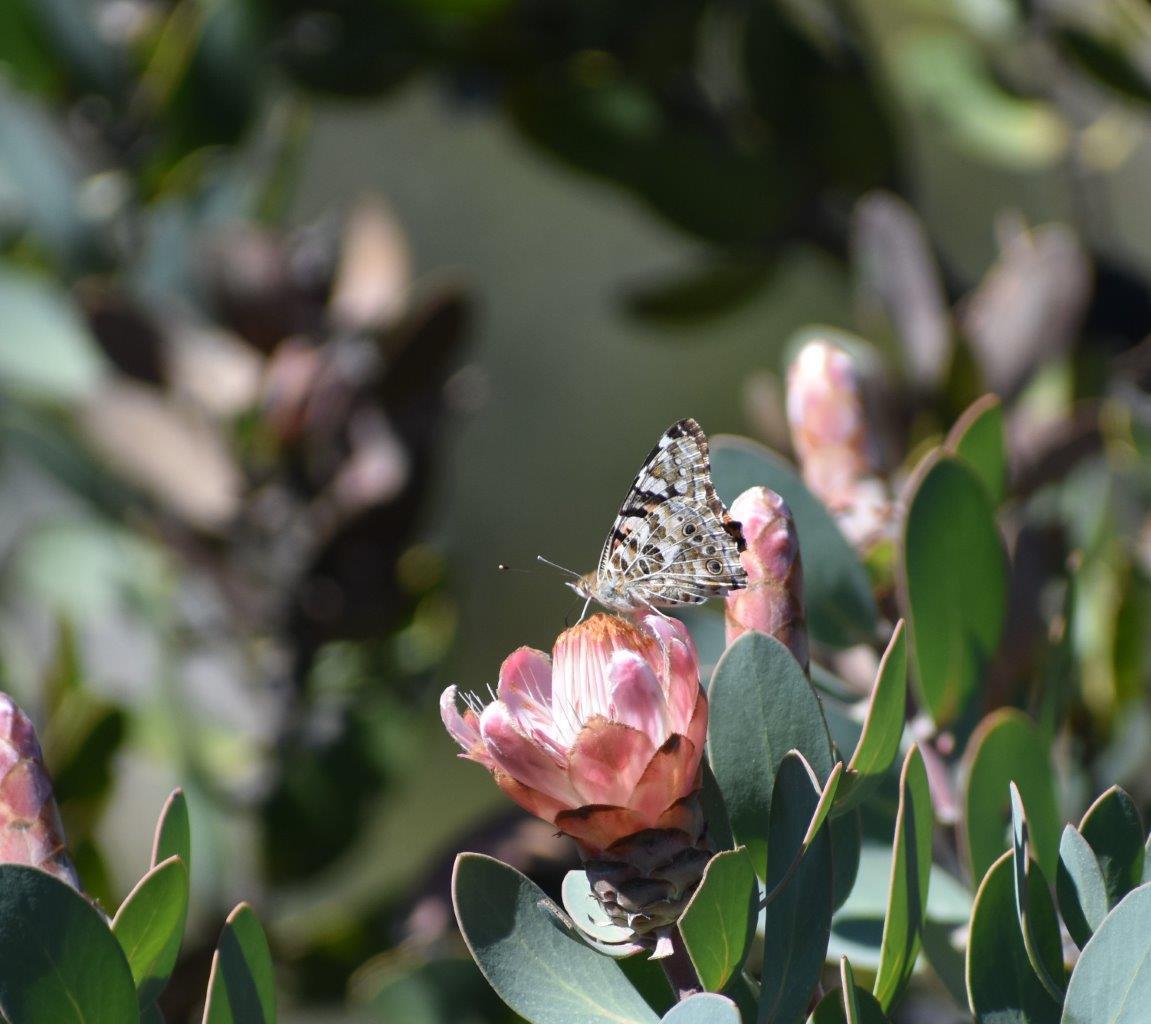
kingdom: Animalia
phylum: Arthropoda
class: Insecta
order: Lepidoptera
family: Nymphalidae
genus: Vanessa
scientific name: Vanessa cardui
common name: Painted lady
